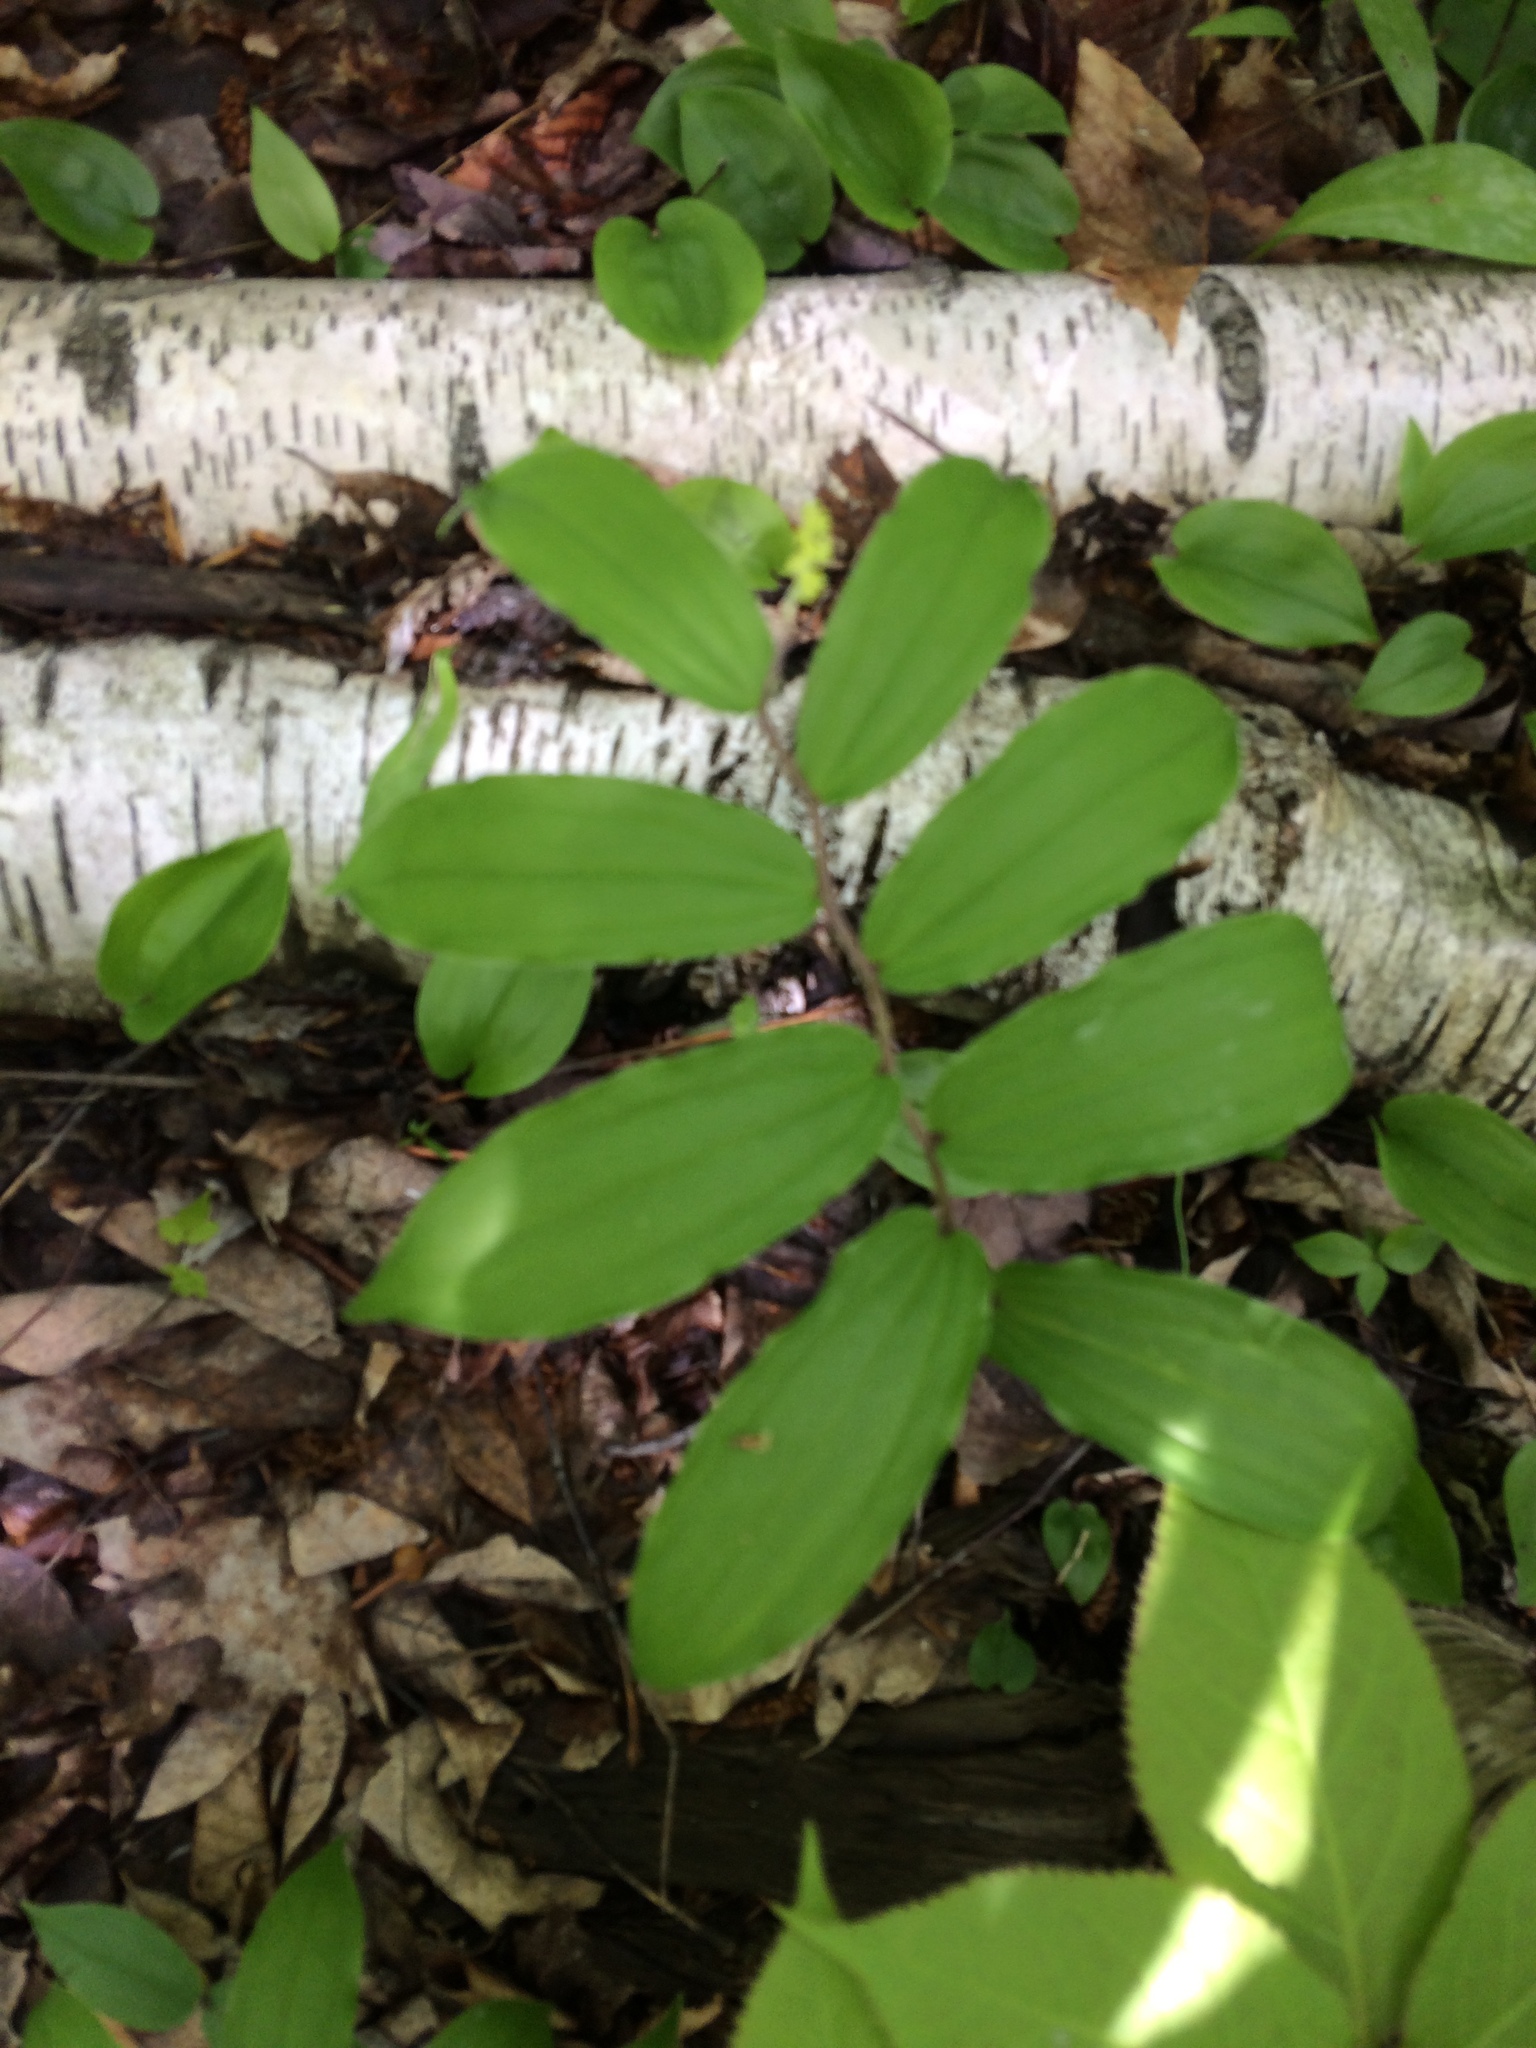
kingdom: Plantae
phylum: Tracheophyta
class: Liliopsida
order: Asparagales
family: Asparagaceae
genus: Maianthemum
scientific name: Maianthemum racemosum
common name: False spikenard
